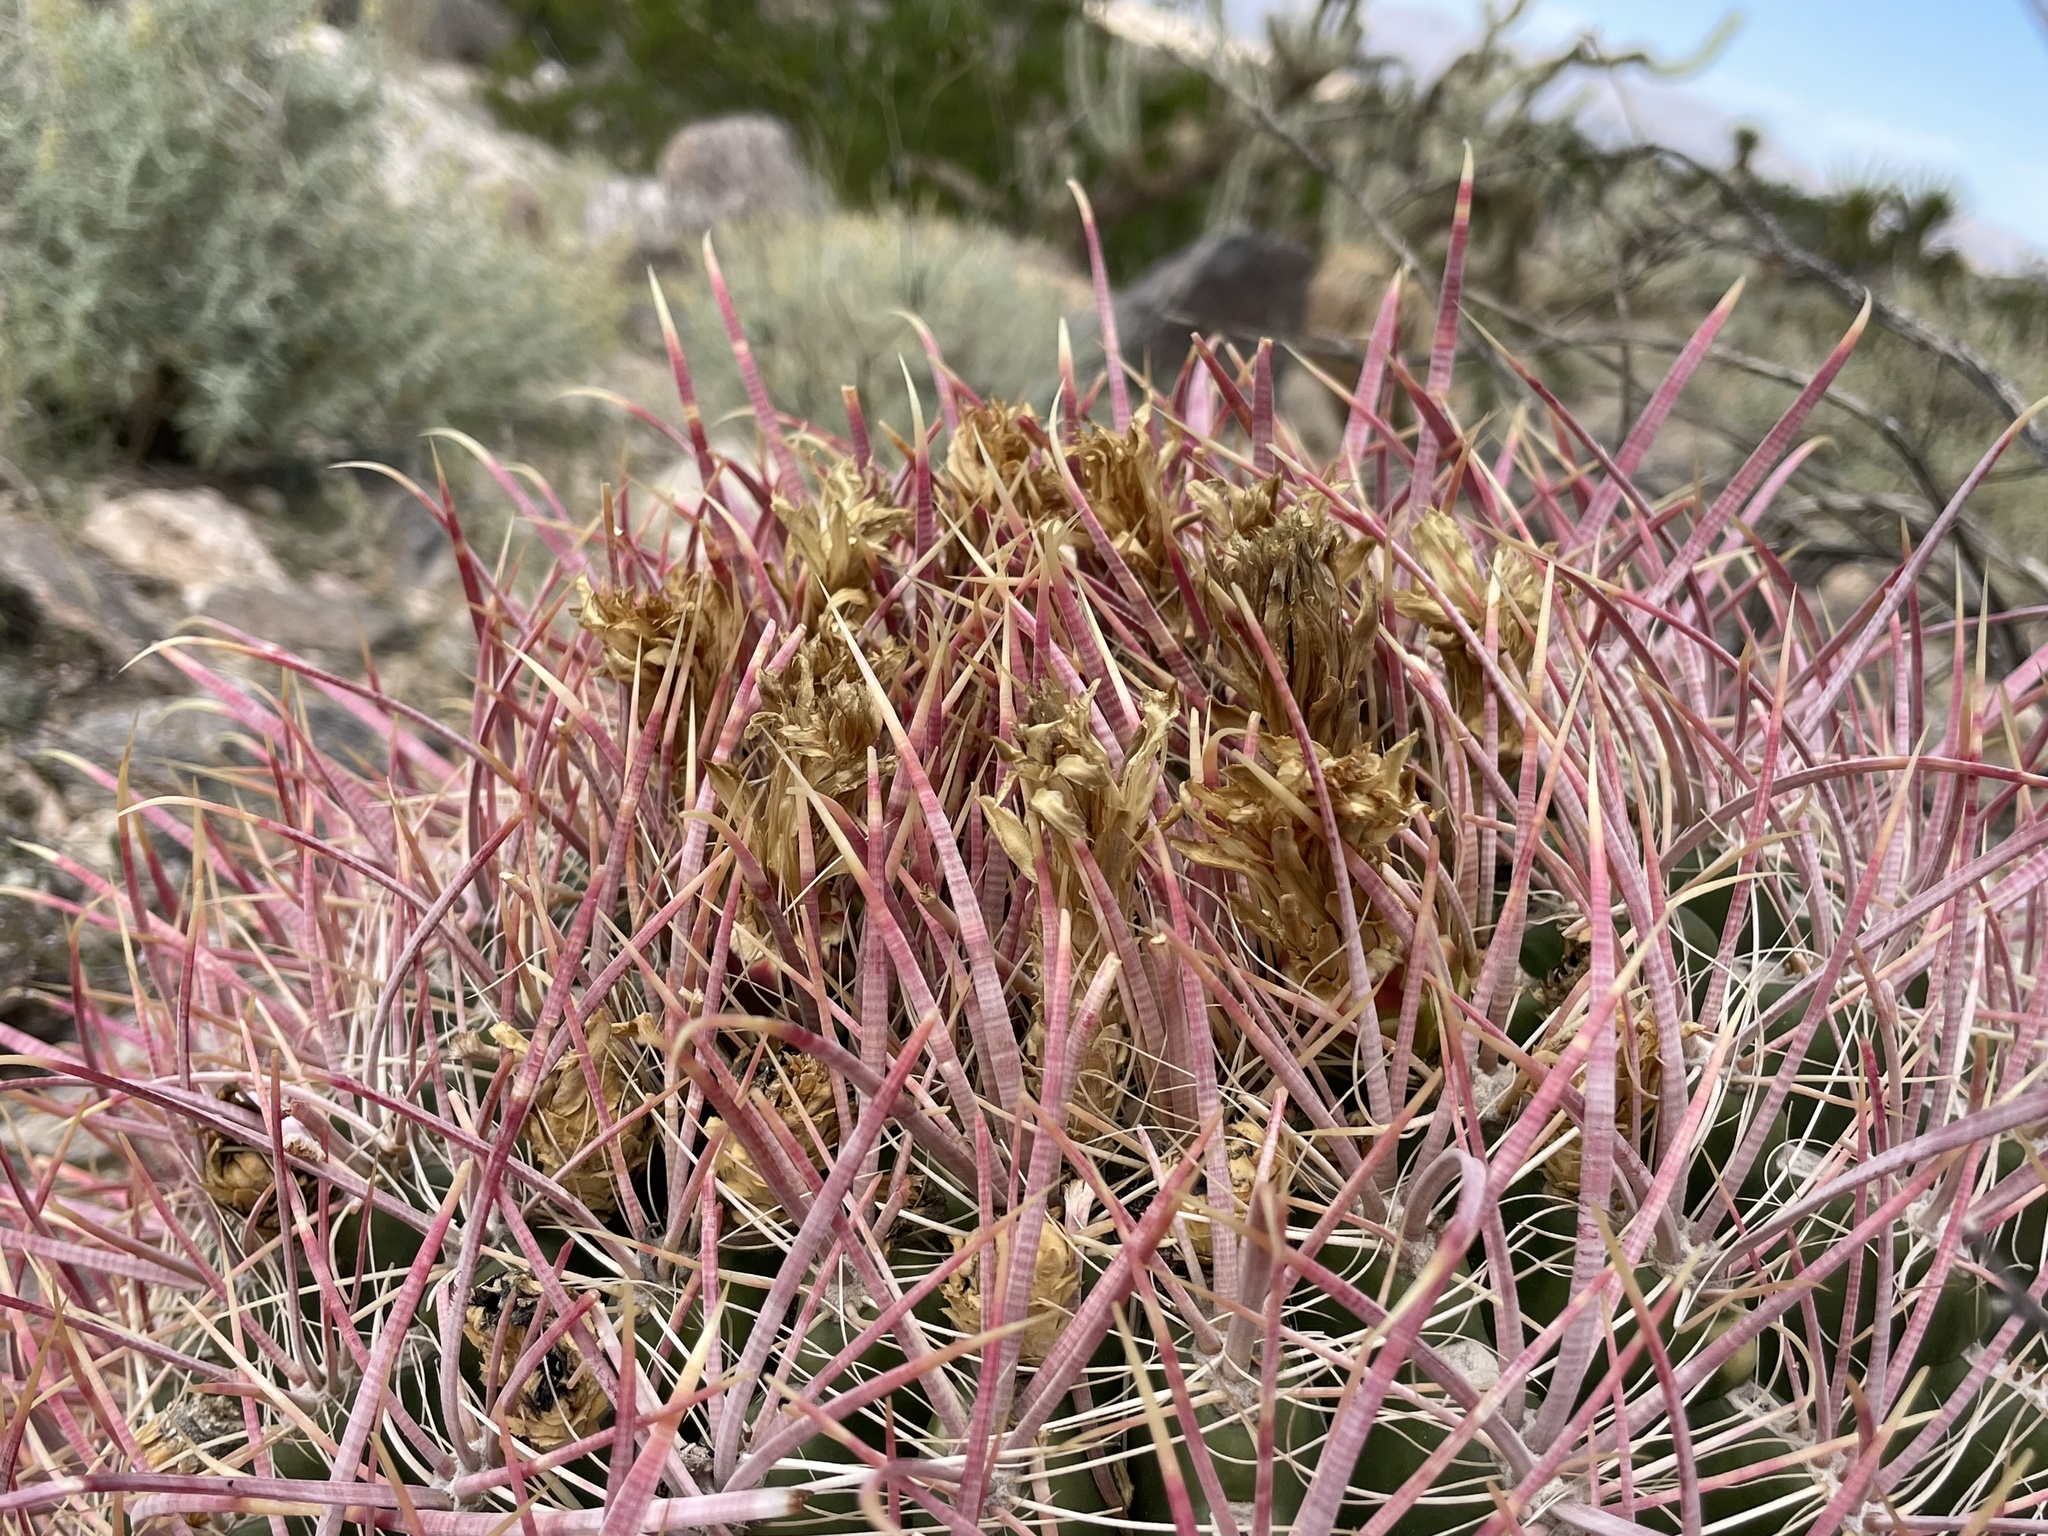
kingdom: Plantae
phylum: Tracheophyta
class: Magnoliopsida
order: Caryophyllales
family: Cactaceae
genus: Ferocactus
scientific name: Ferocactus cylindraceus
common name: California barrel cactus
